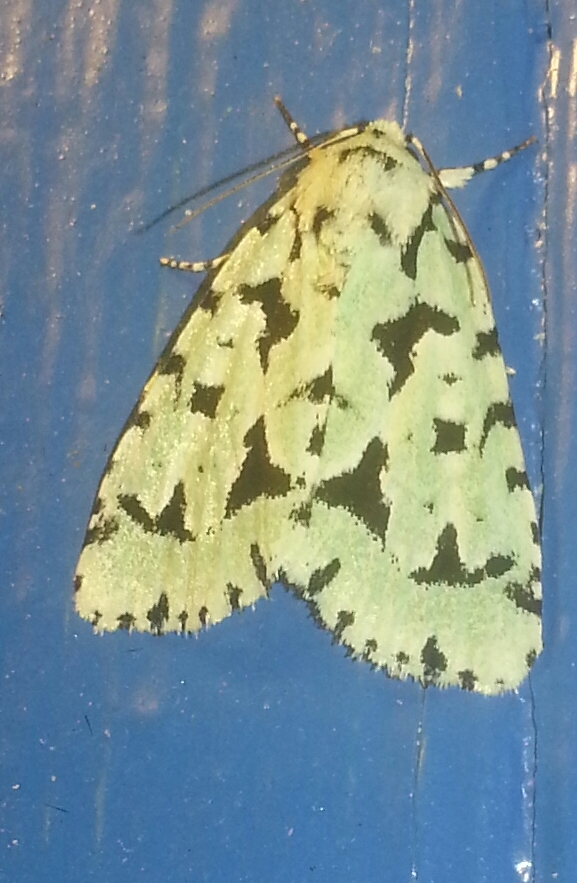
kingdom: Animalia
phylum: Arthropoda
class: Insecta
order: Lepidoptera
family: Noctuidae
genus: Acronicta
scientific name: Acronicta fallax
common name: Green marvel
